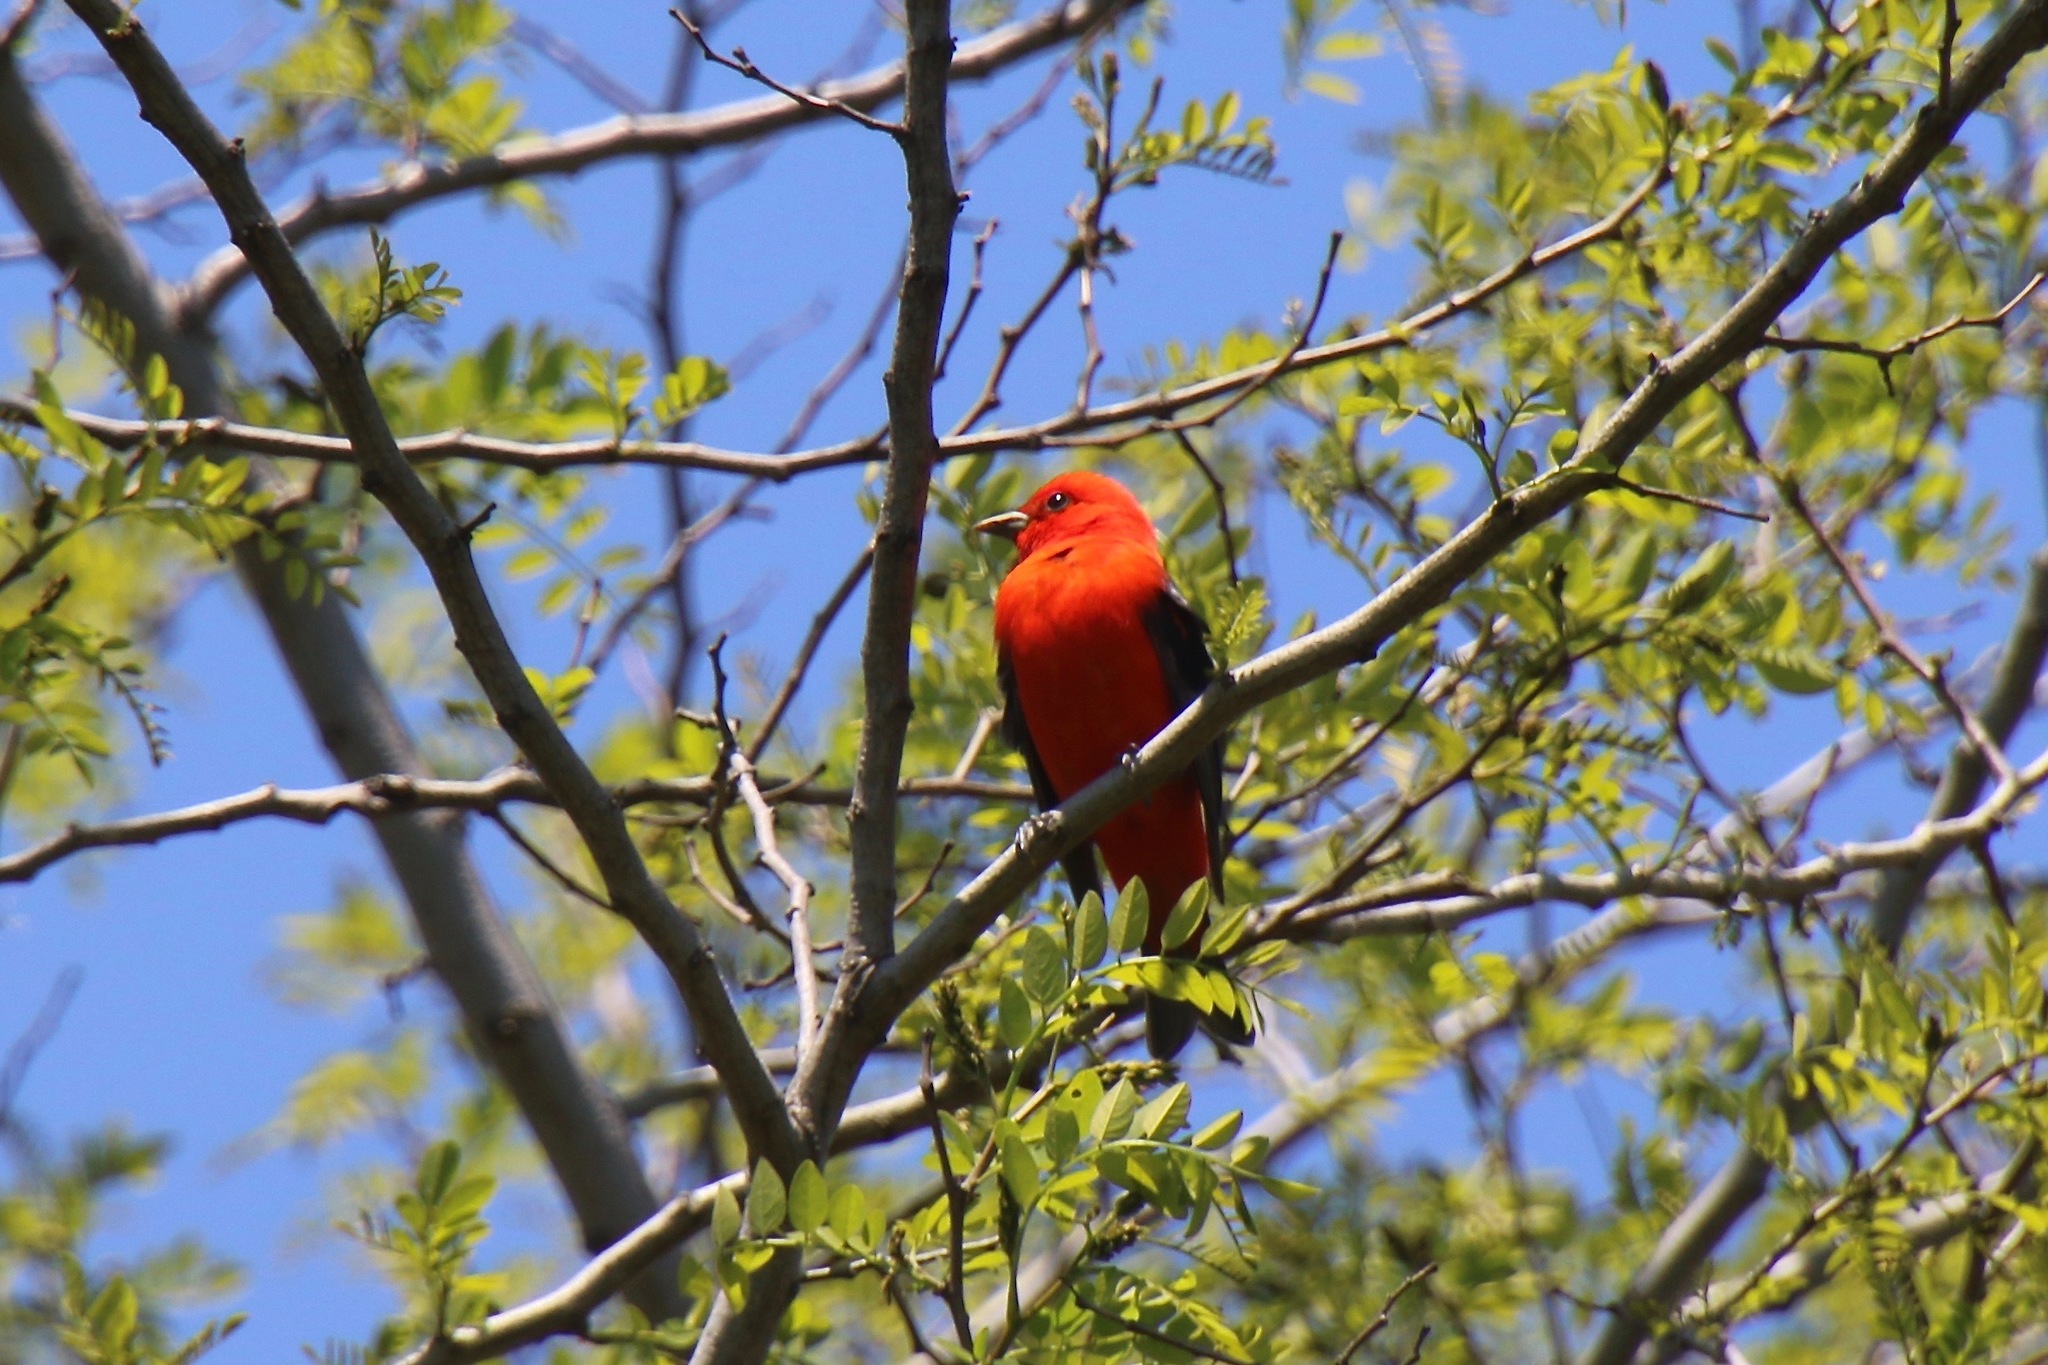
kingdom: Animalia
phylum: Chordata
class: Aves
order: Passeriformes
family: Cardinalidae
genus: Piranga
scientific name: Piranga olivacea
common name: Scarlet tanager
